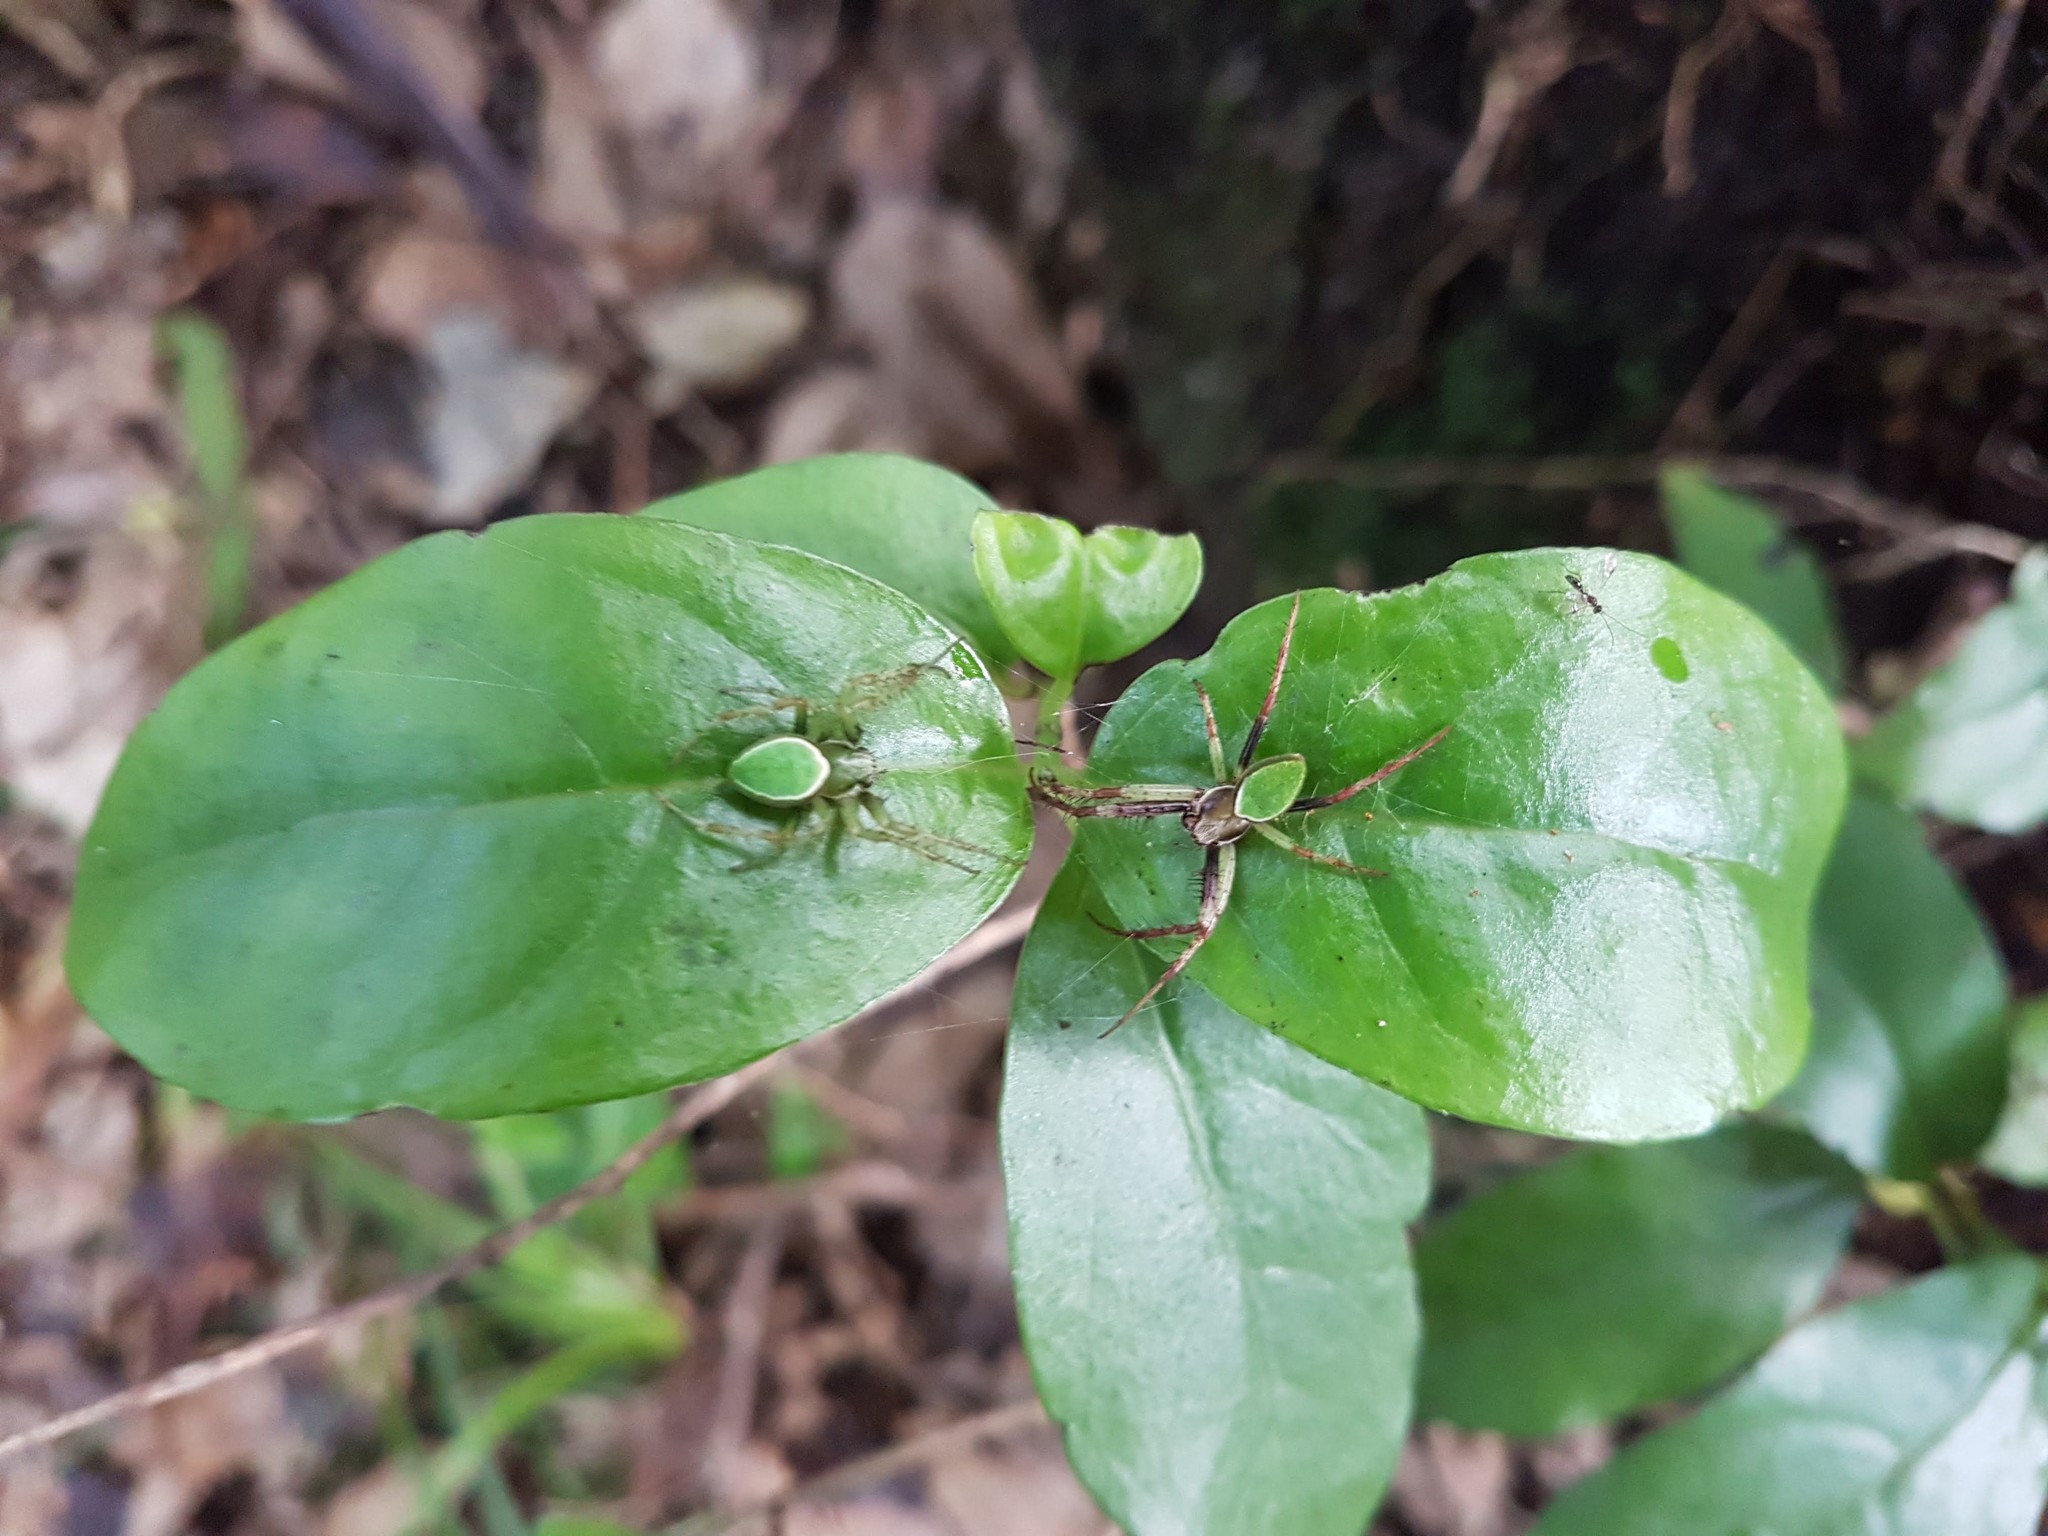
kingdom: Animalia
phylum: Arthropoda
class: Arachnida
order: Araneae
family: Araneidae
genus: Colaranea
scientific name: Colaranea viriditas
